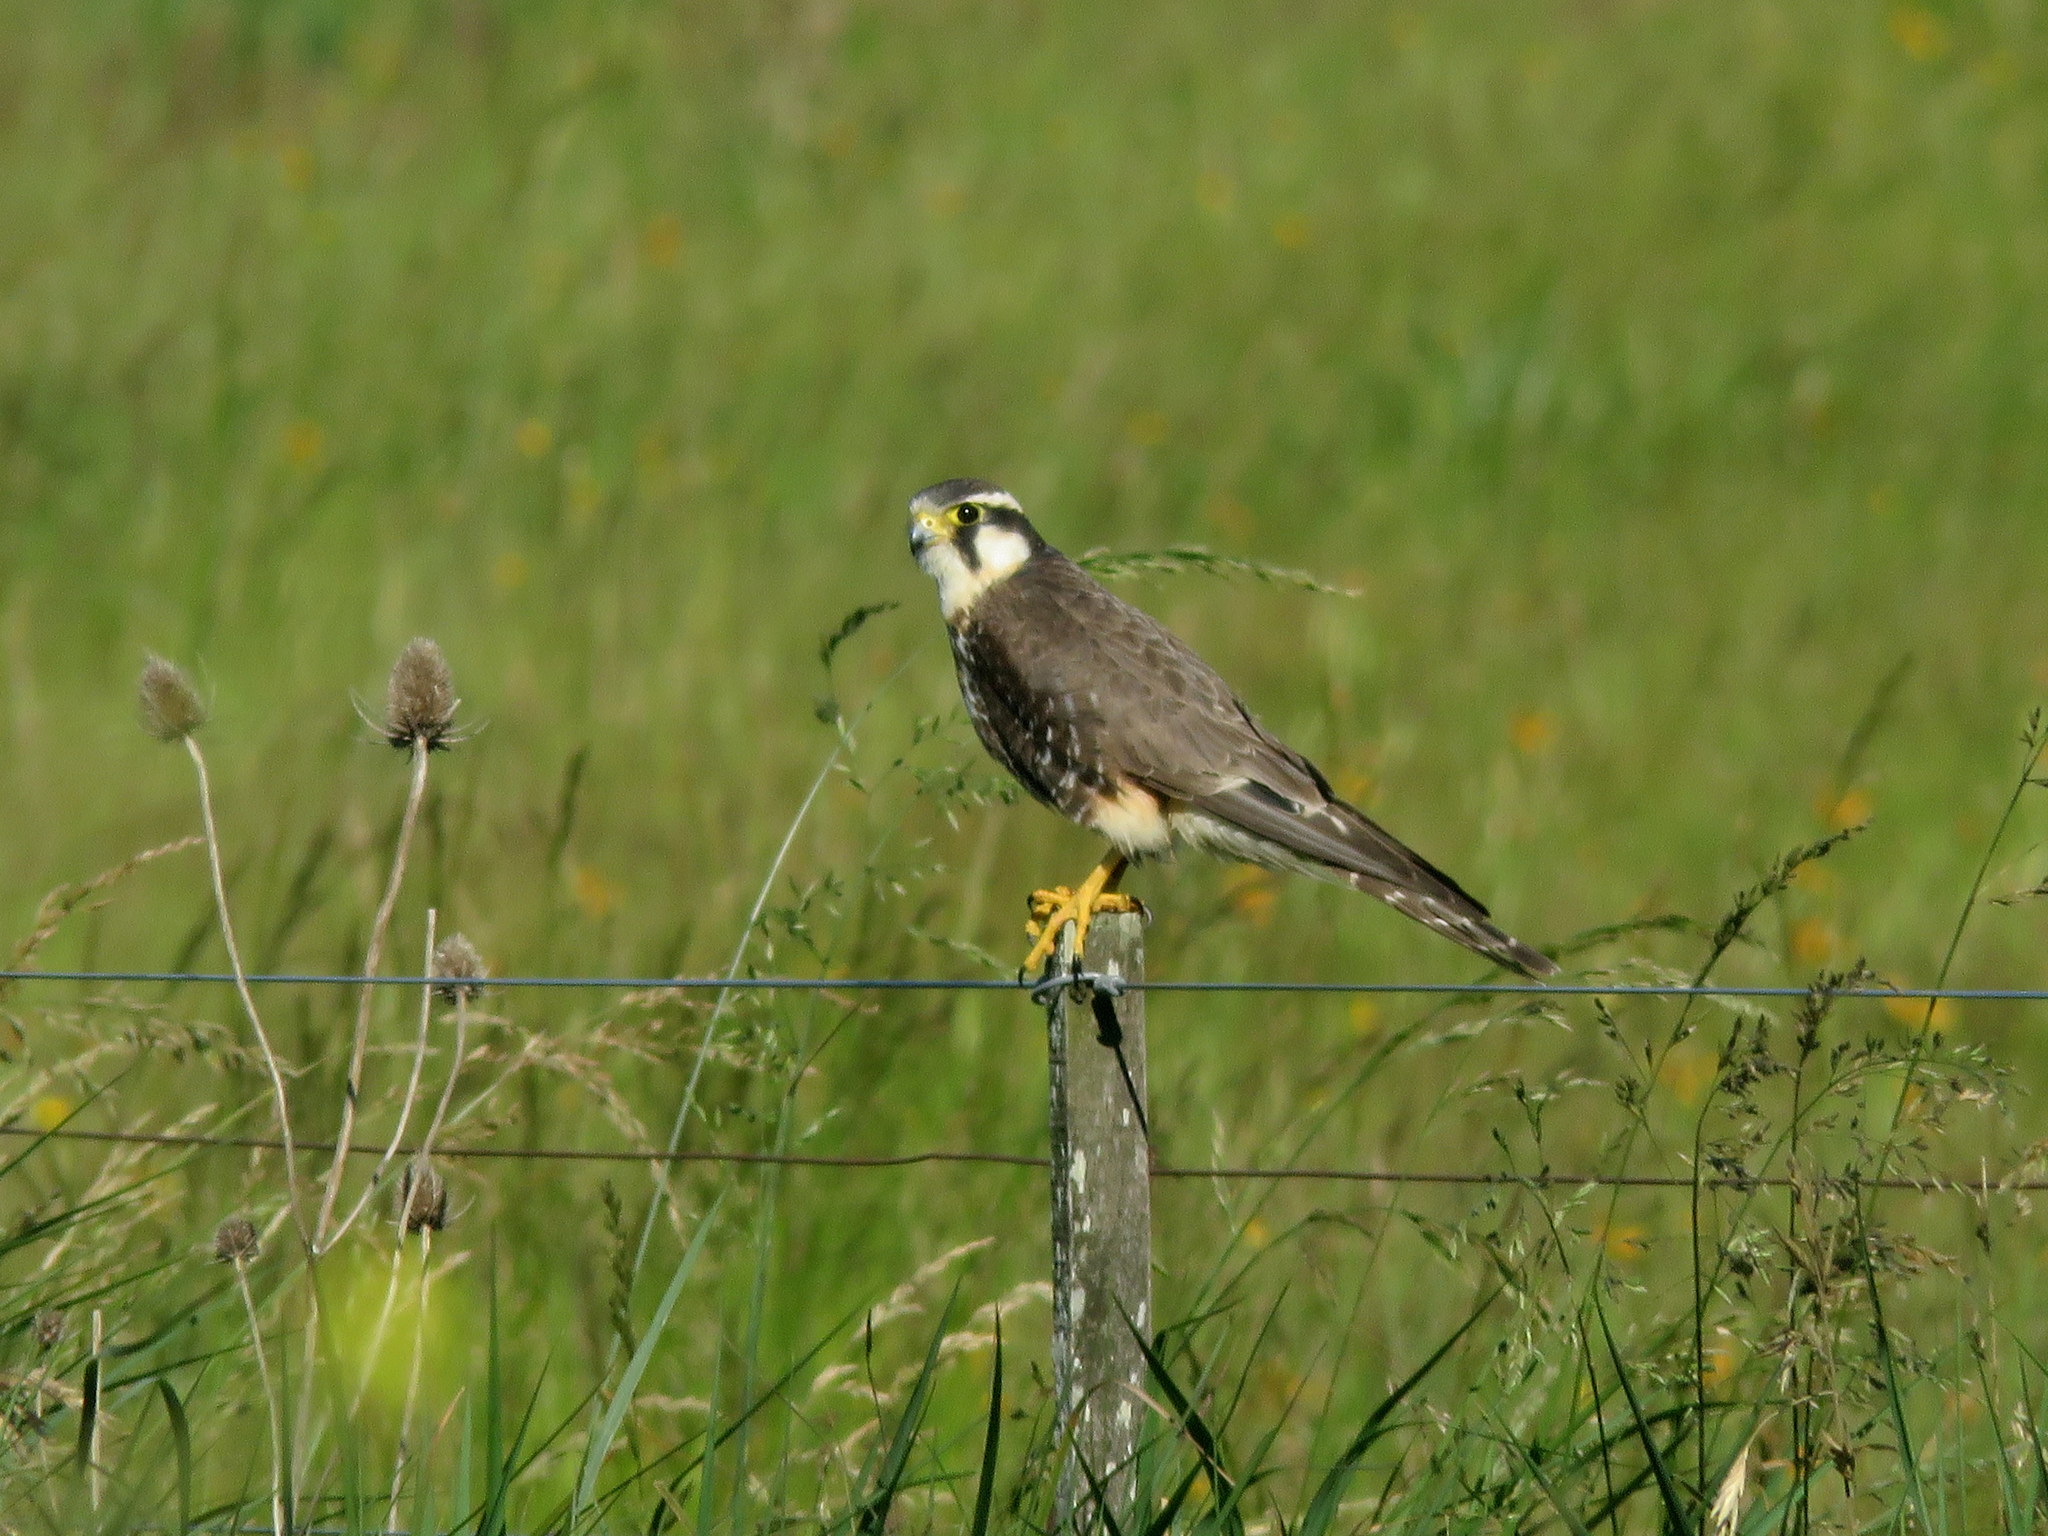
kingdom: Animalia
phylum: Chordata
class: Aves
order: Falconiformes
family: Falconidae
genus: Falco
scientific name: Falco femoralis
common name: Aplomado falcon
